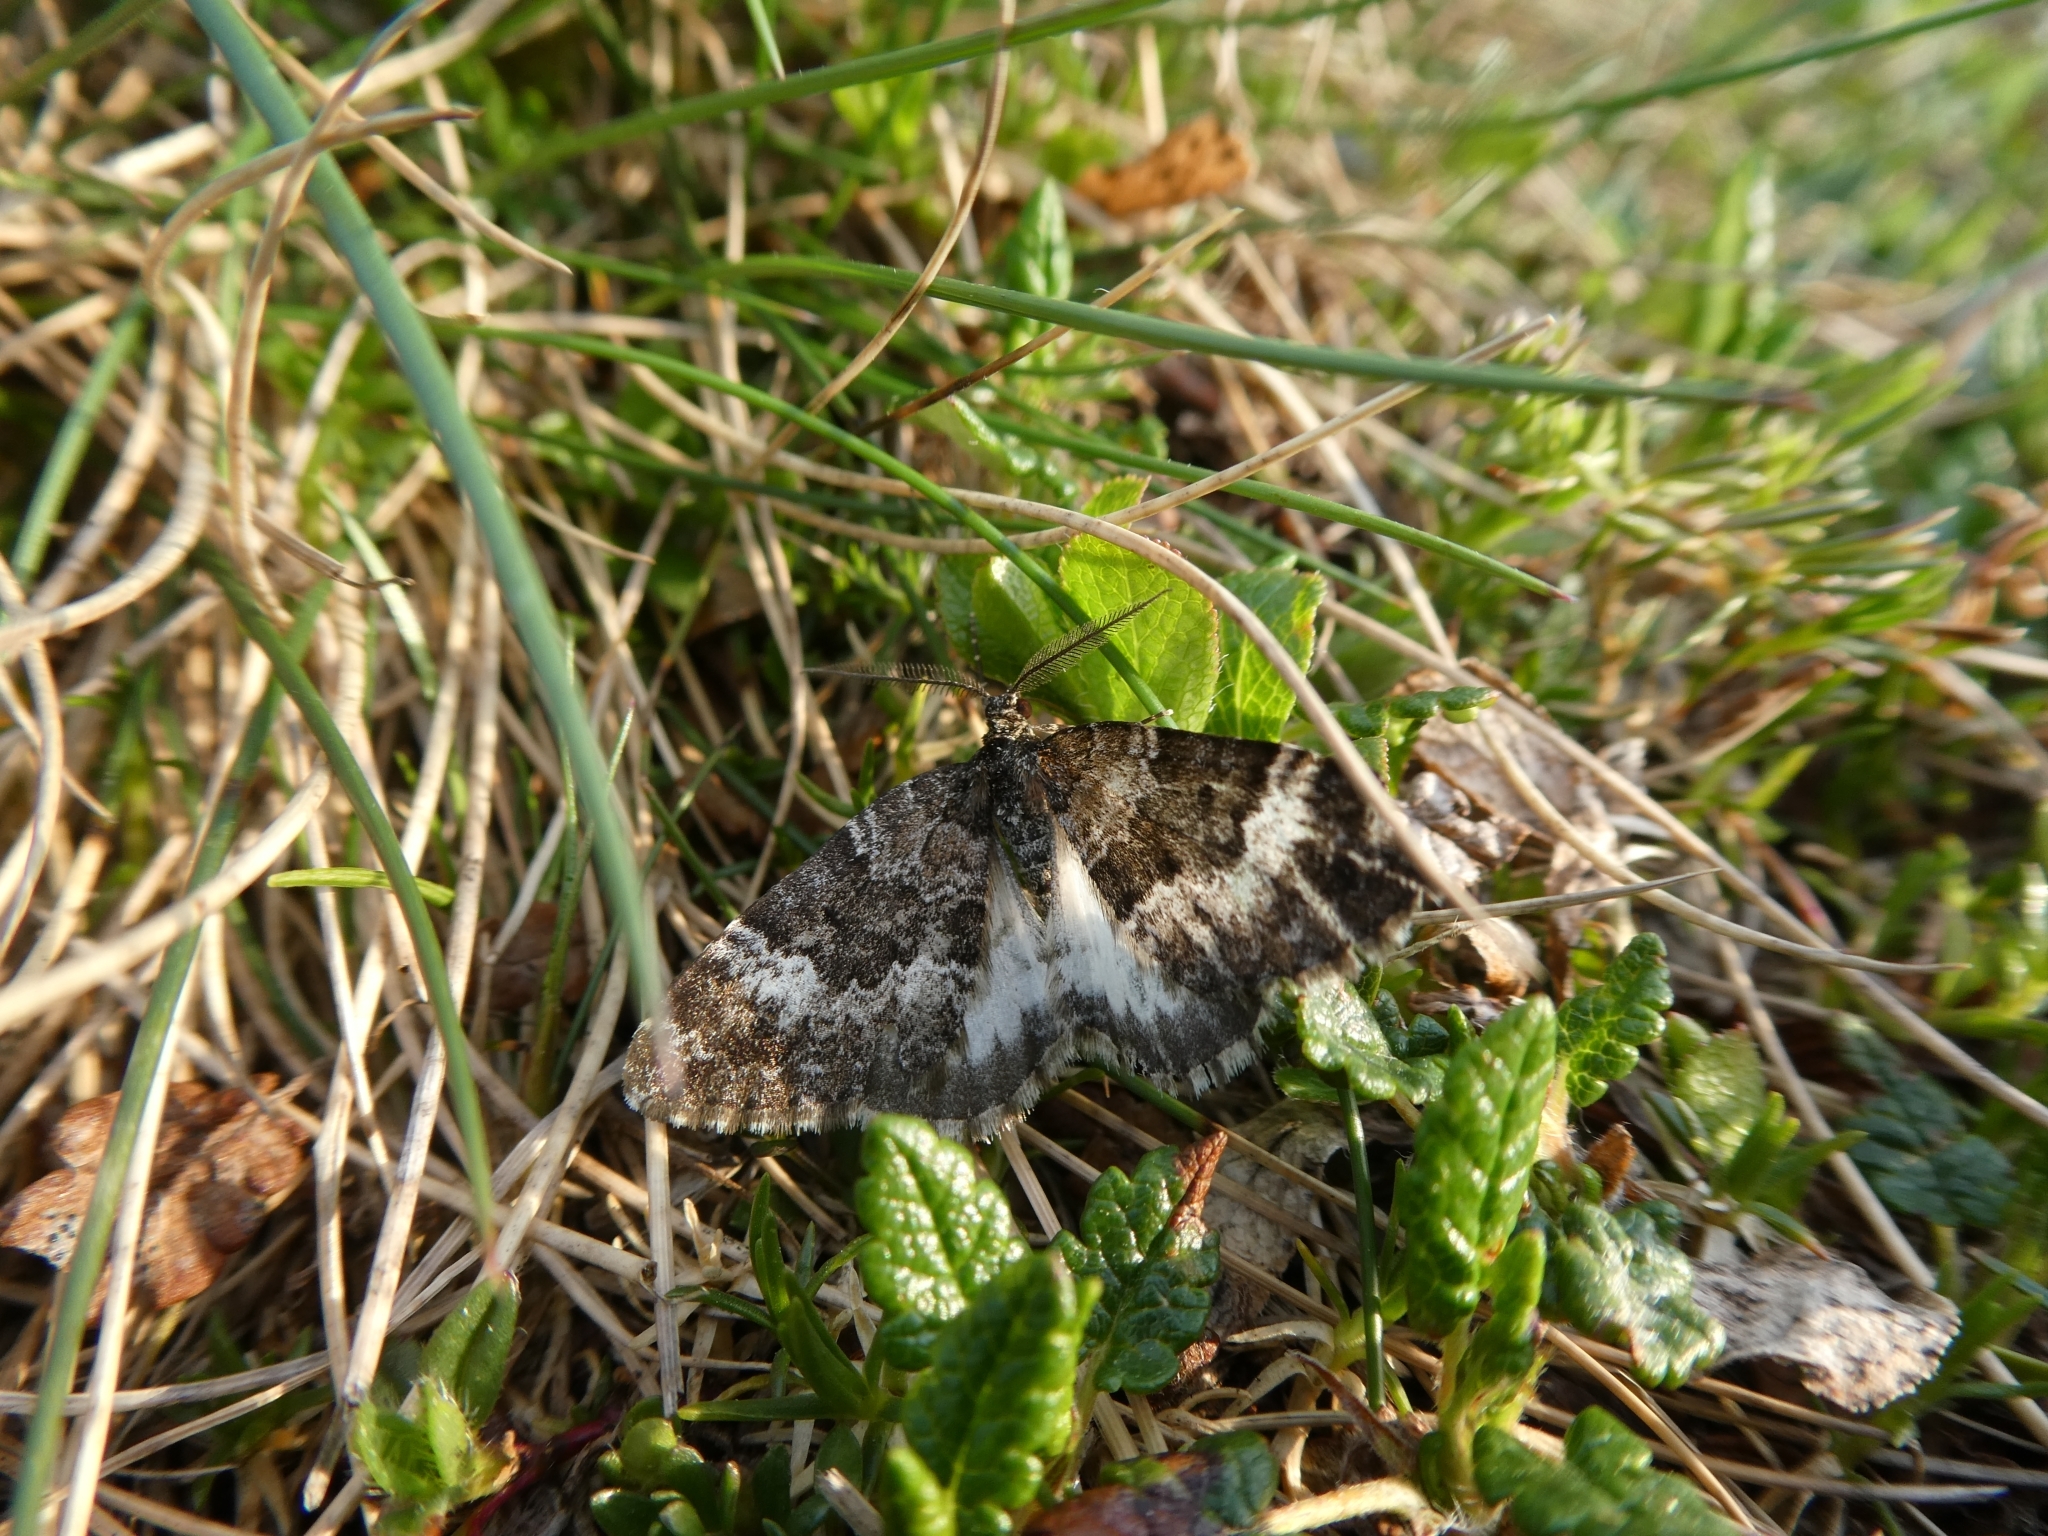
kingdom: Animalia
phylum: Arthropoda
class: Insecta
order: Lepidoptera
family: Geometridae
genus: Colostygia
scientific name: Colostygia turbata
